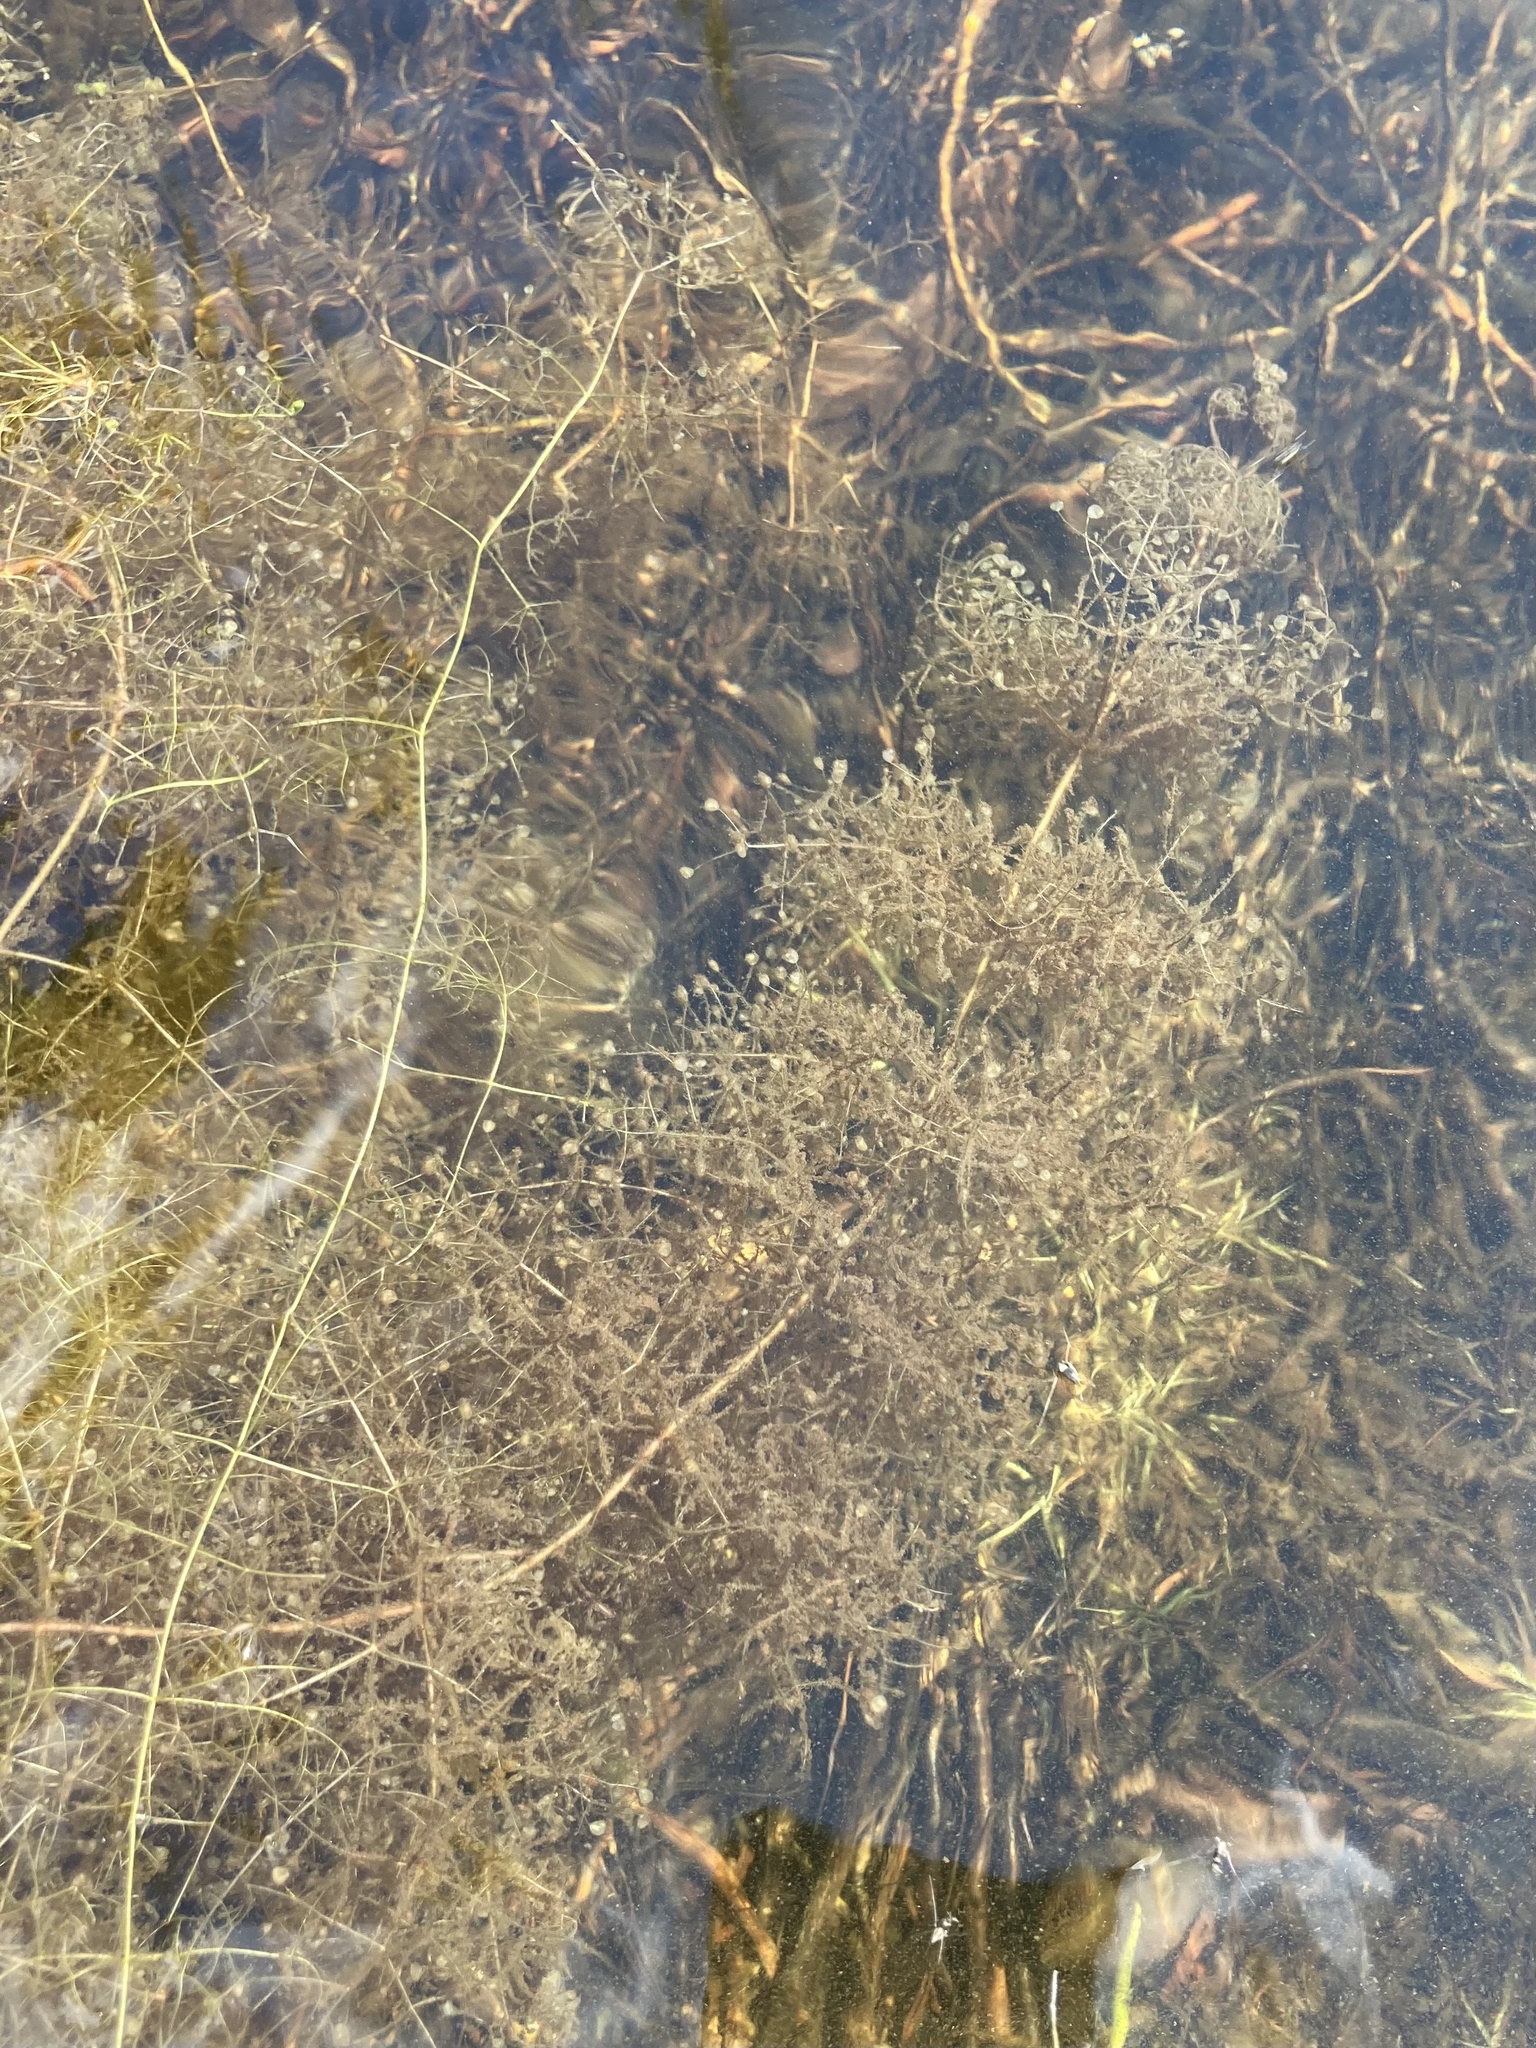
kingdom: Plantae
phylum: Tracheophyta
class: Magnoliopsida
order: Lamiales
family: Lentibulariaceae
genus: Utricularia
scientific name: Utricularia purpurea
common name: Eastern purple bladderwort
